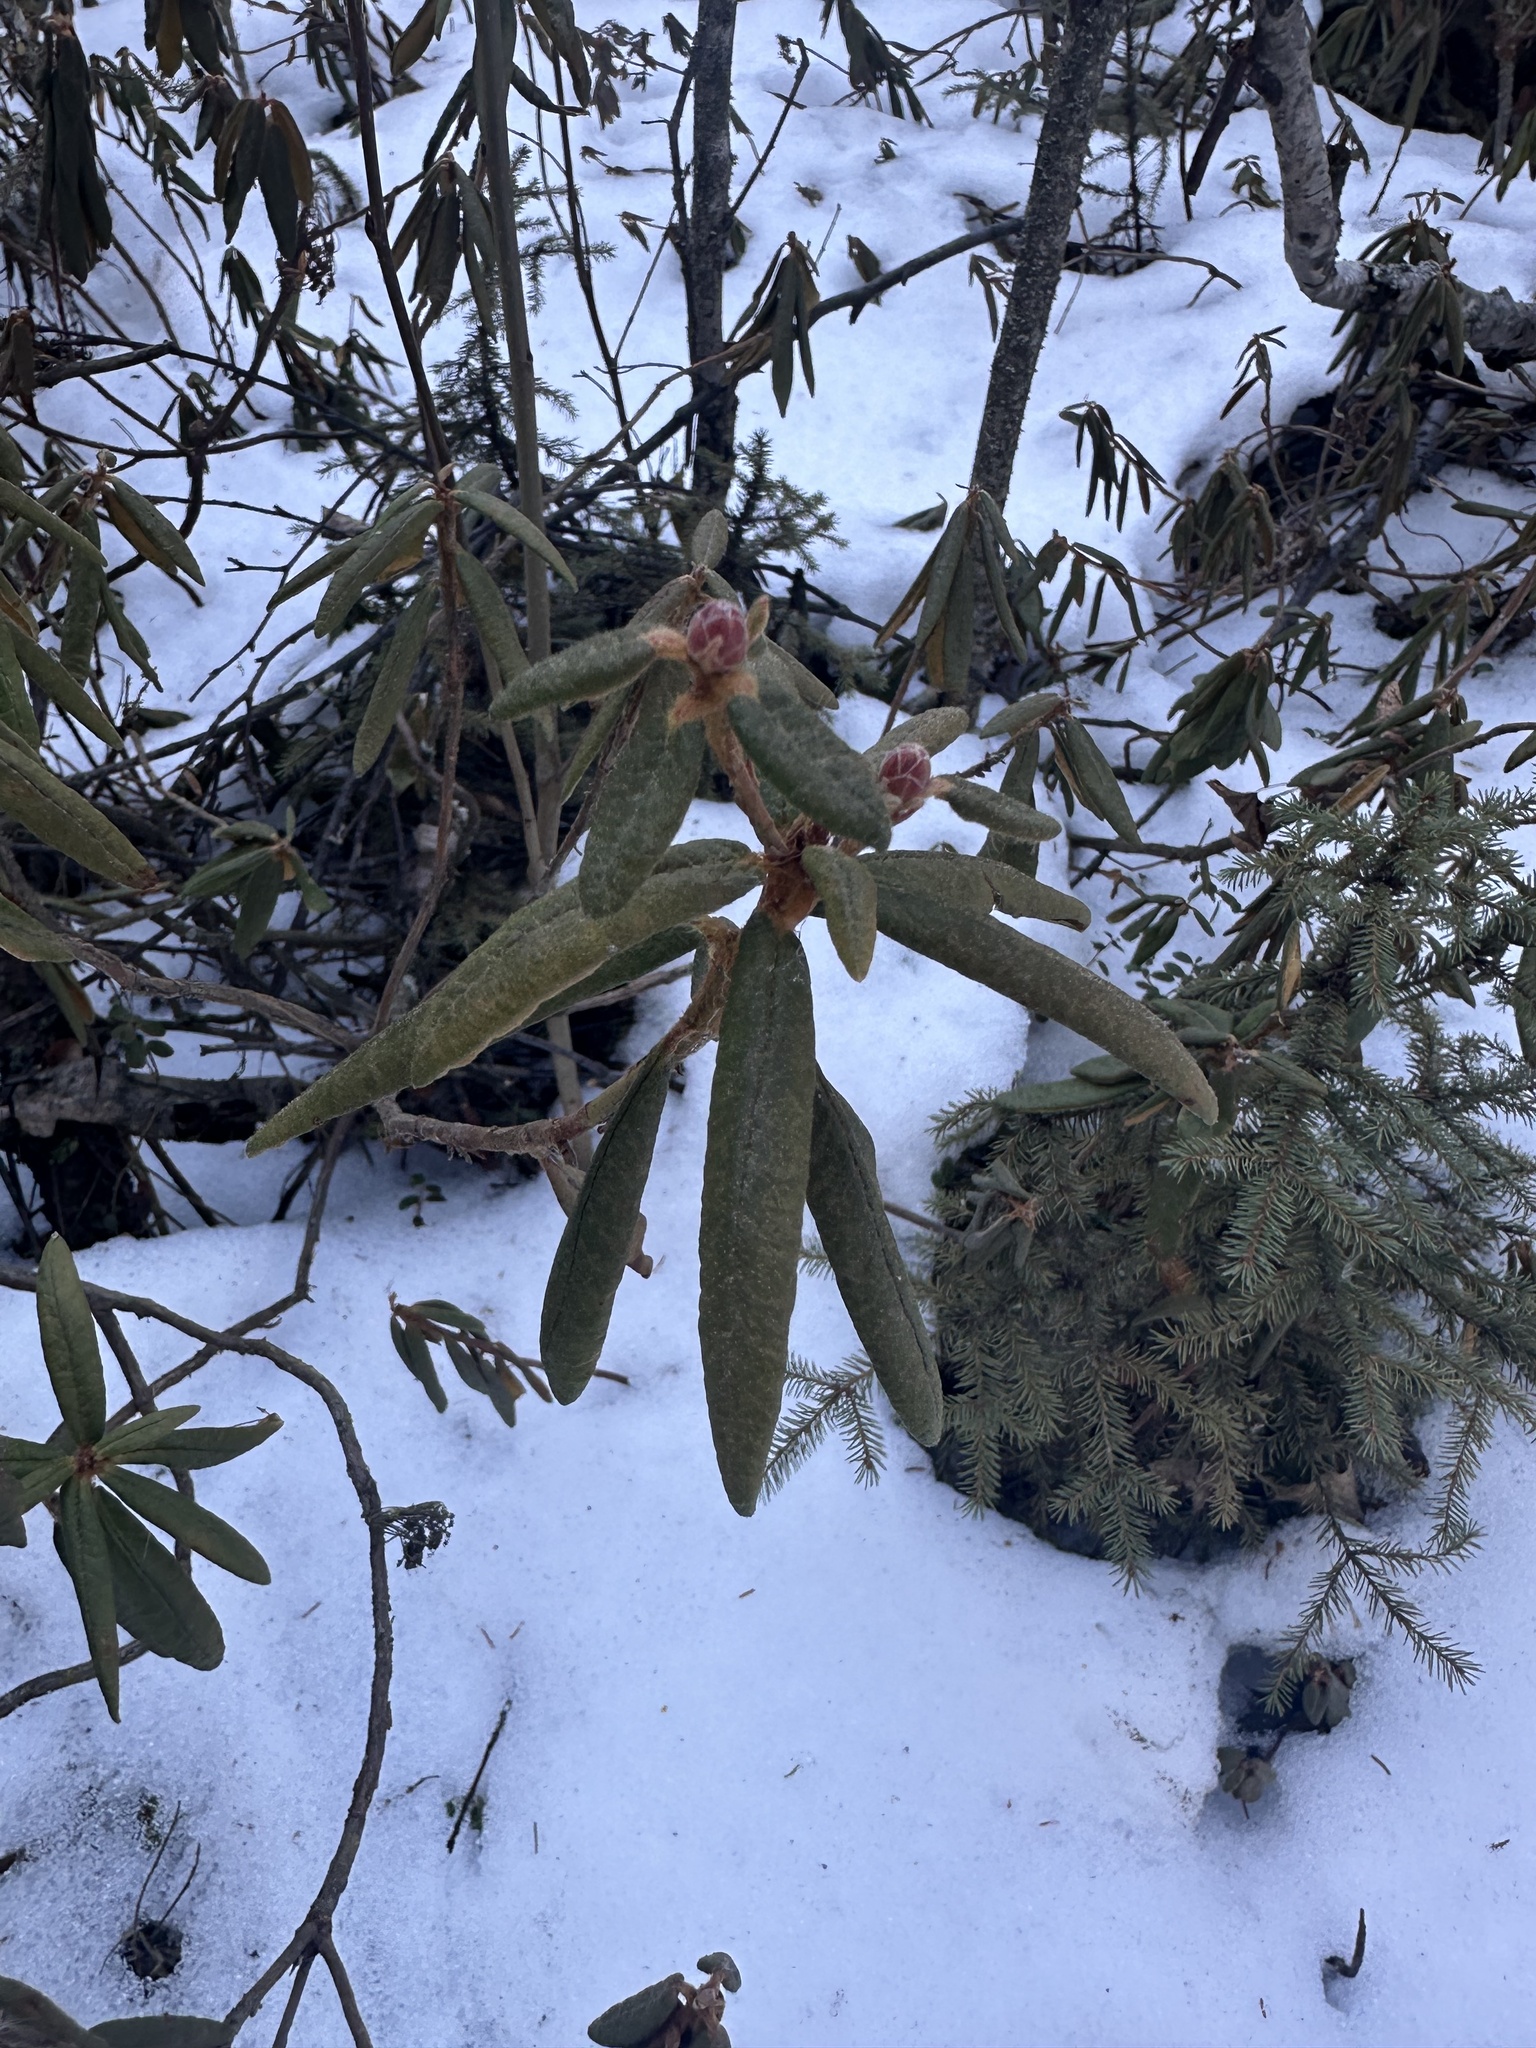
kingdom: Plantae
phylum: Tracheophyta
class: Magnoliopsida
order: Ericales
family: Ericaceae
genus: Rhododendron
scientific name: Rhododendron groenlandicum
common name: Bog labrador tea
